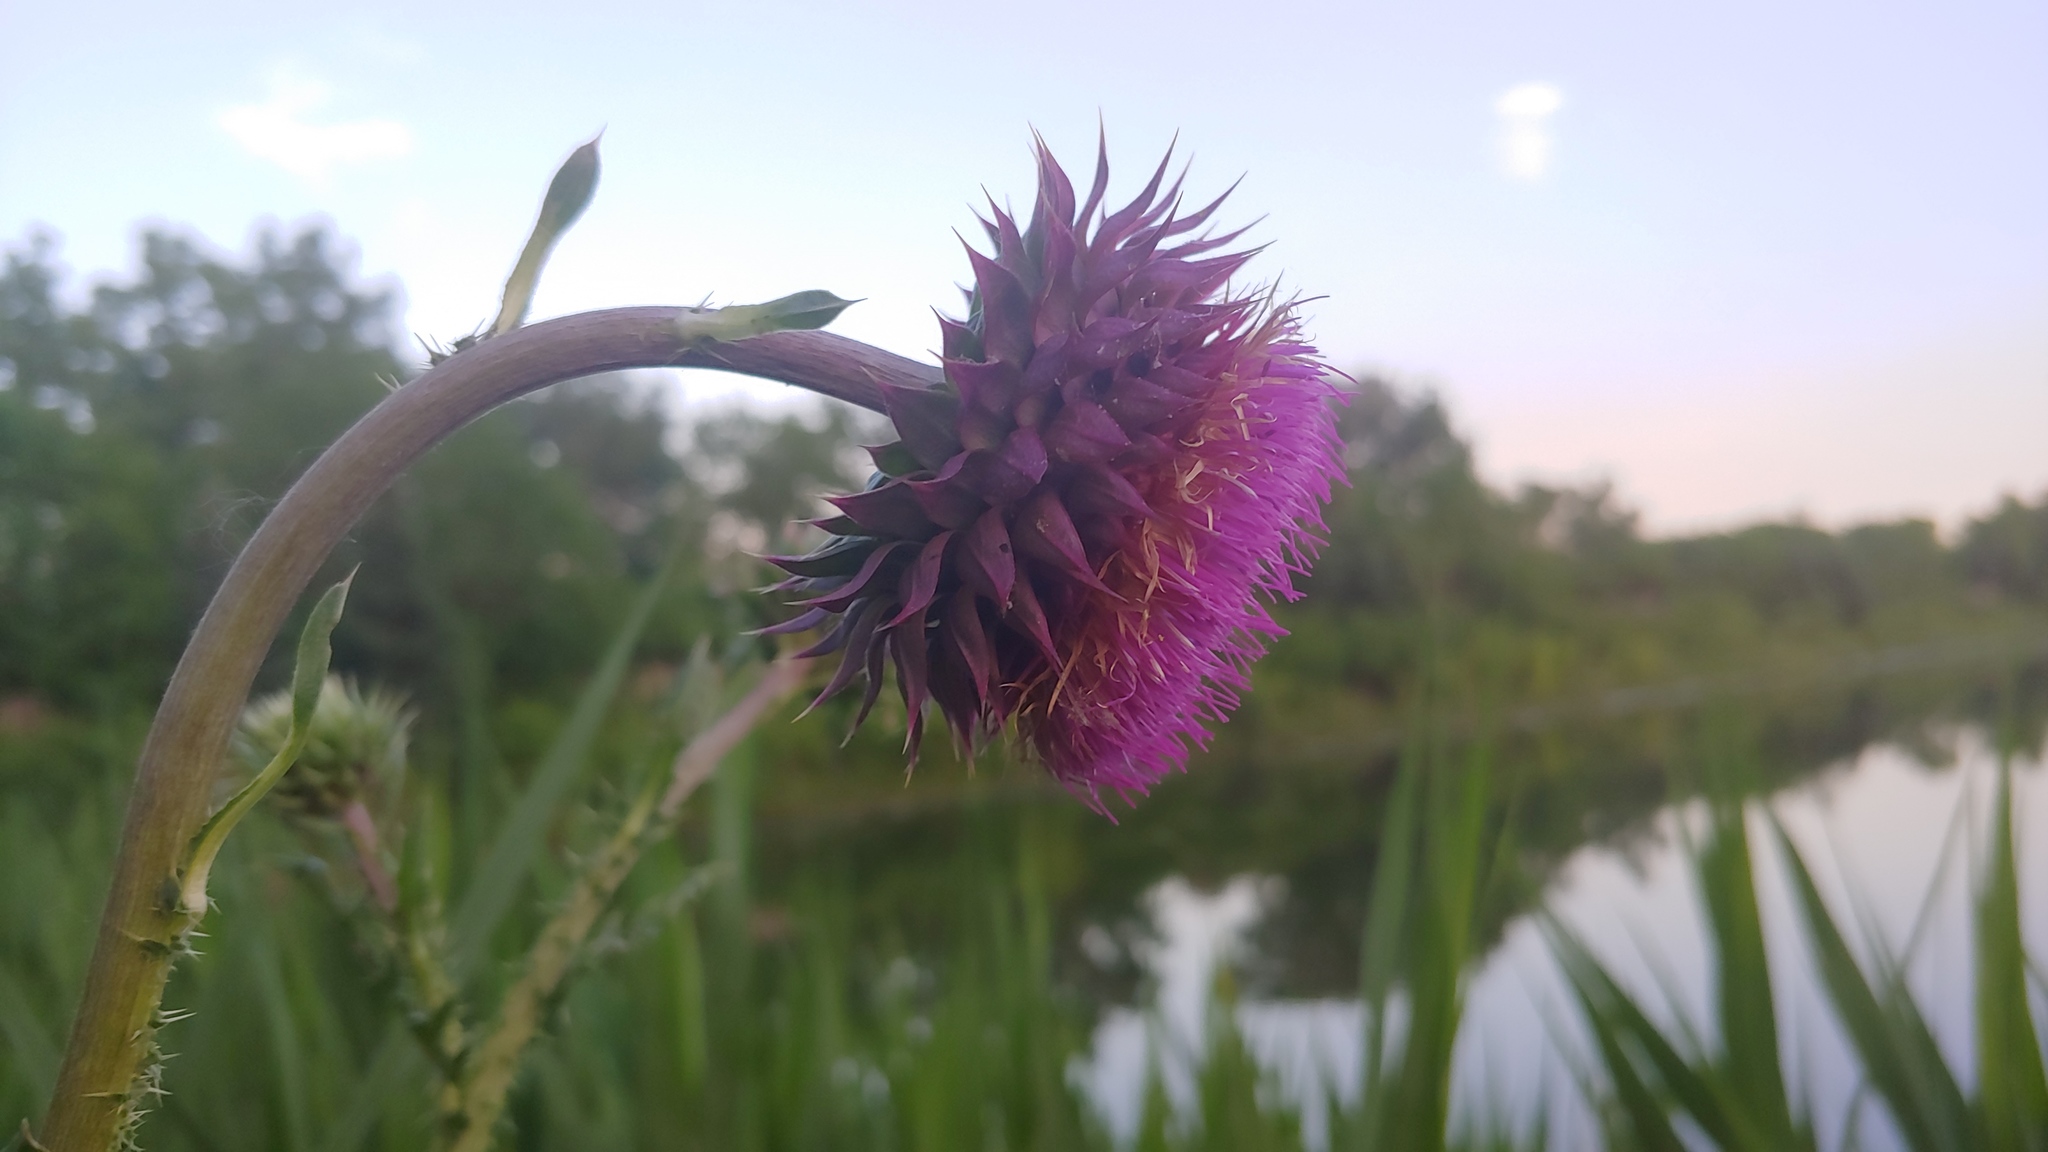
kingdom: Plantae
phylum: Tracheophyta
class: Magnoliopsida
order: Asterales
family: Asteraceae
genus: Carduus
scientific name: Carduus nutans
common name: Musk thistle
